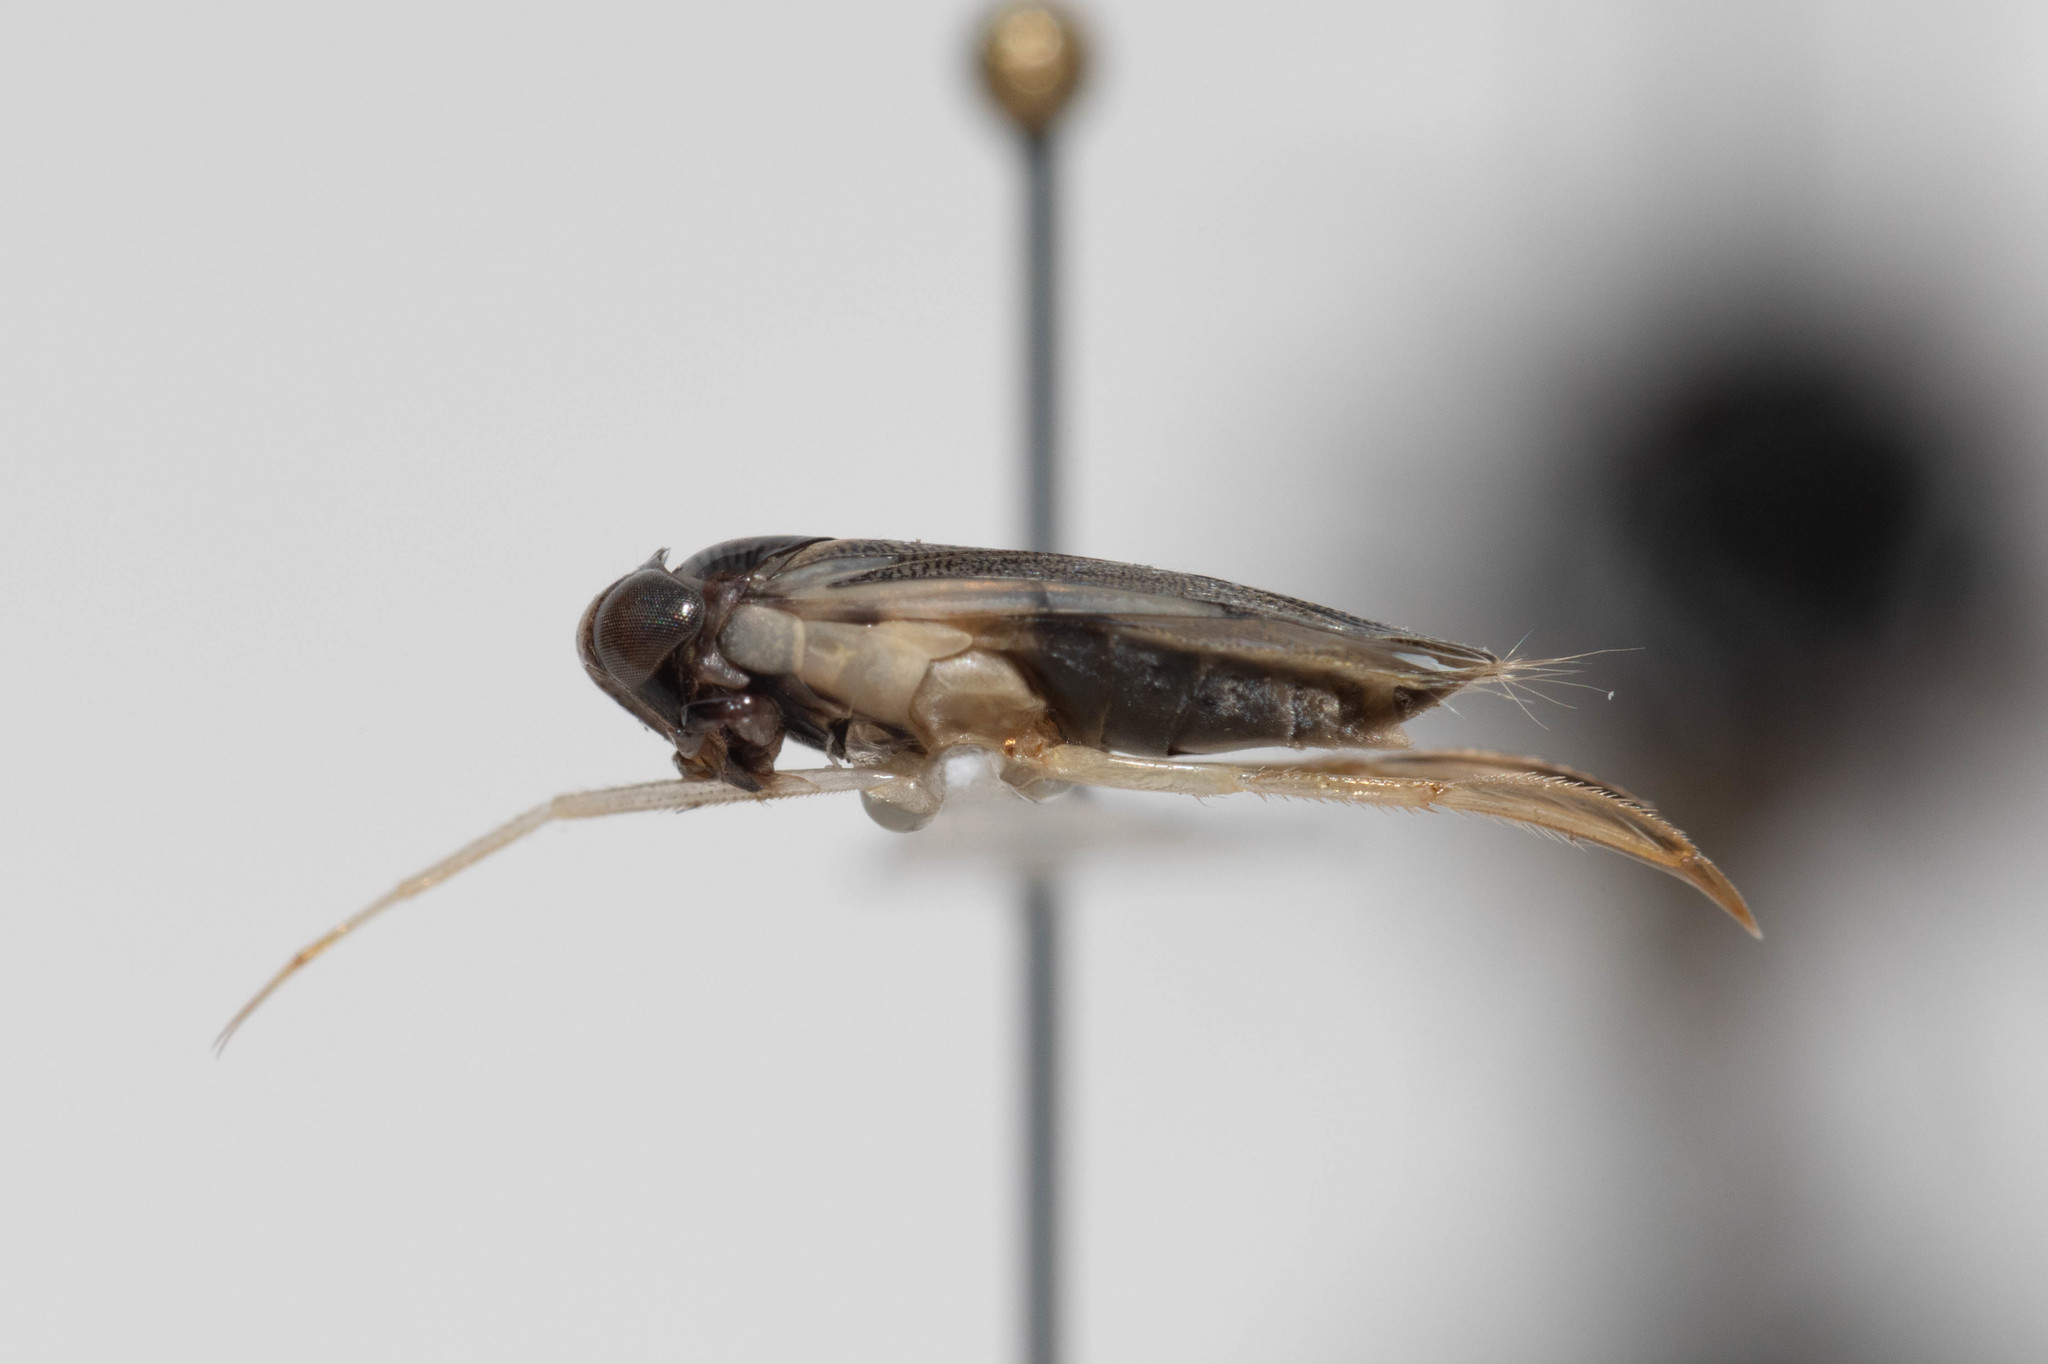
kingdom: Animalia
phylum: Arthropoda
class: Insecta
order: Hemiptera
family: Corixidae
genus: Corisella
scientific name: Corisella inscripta
